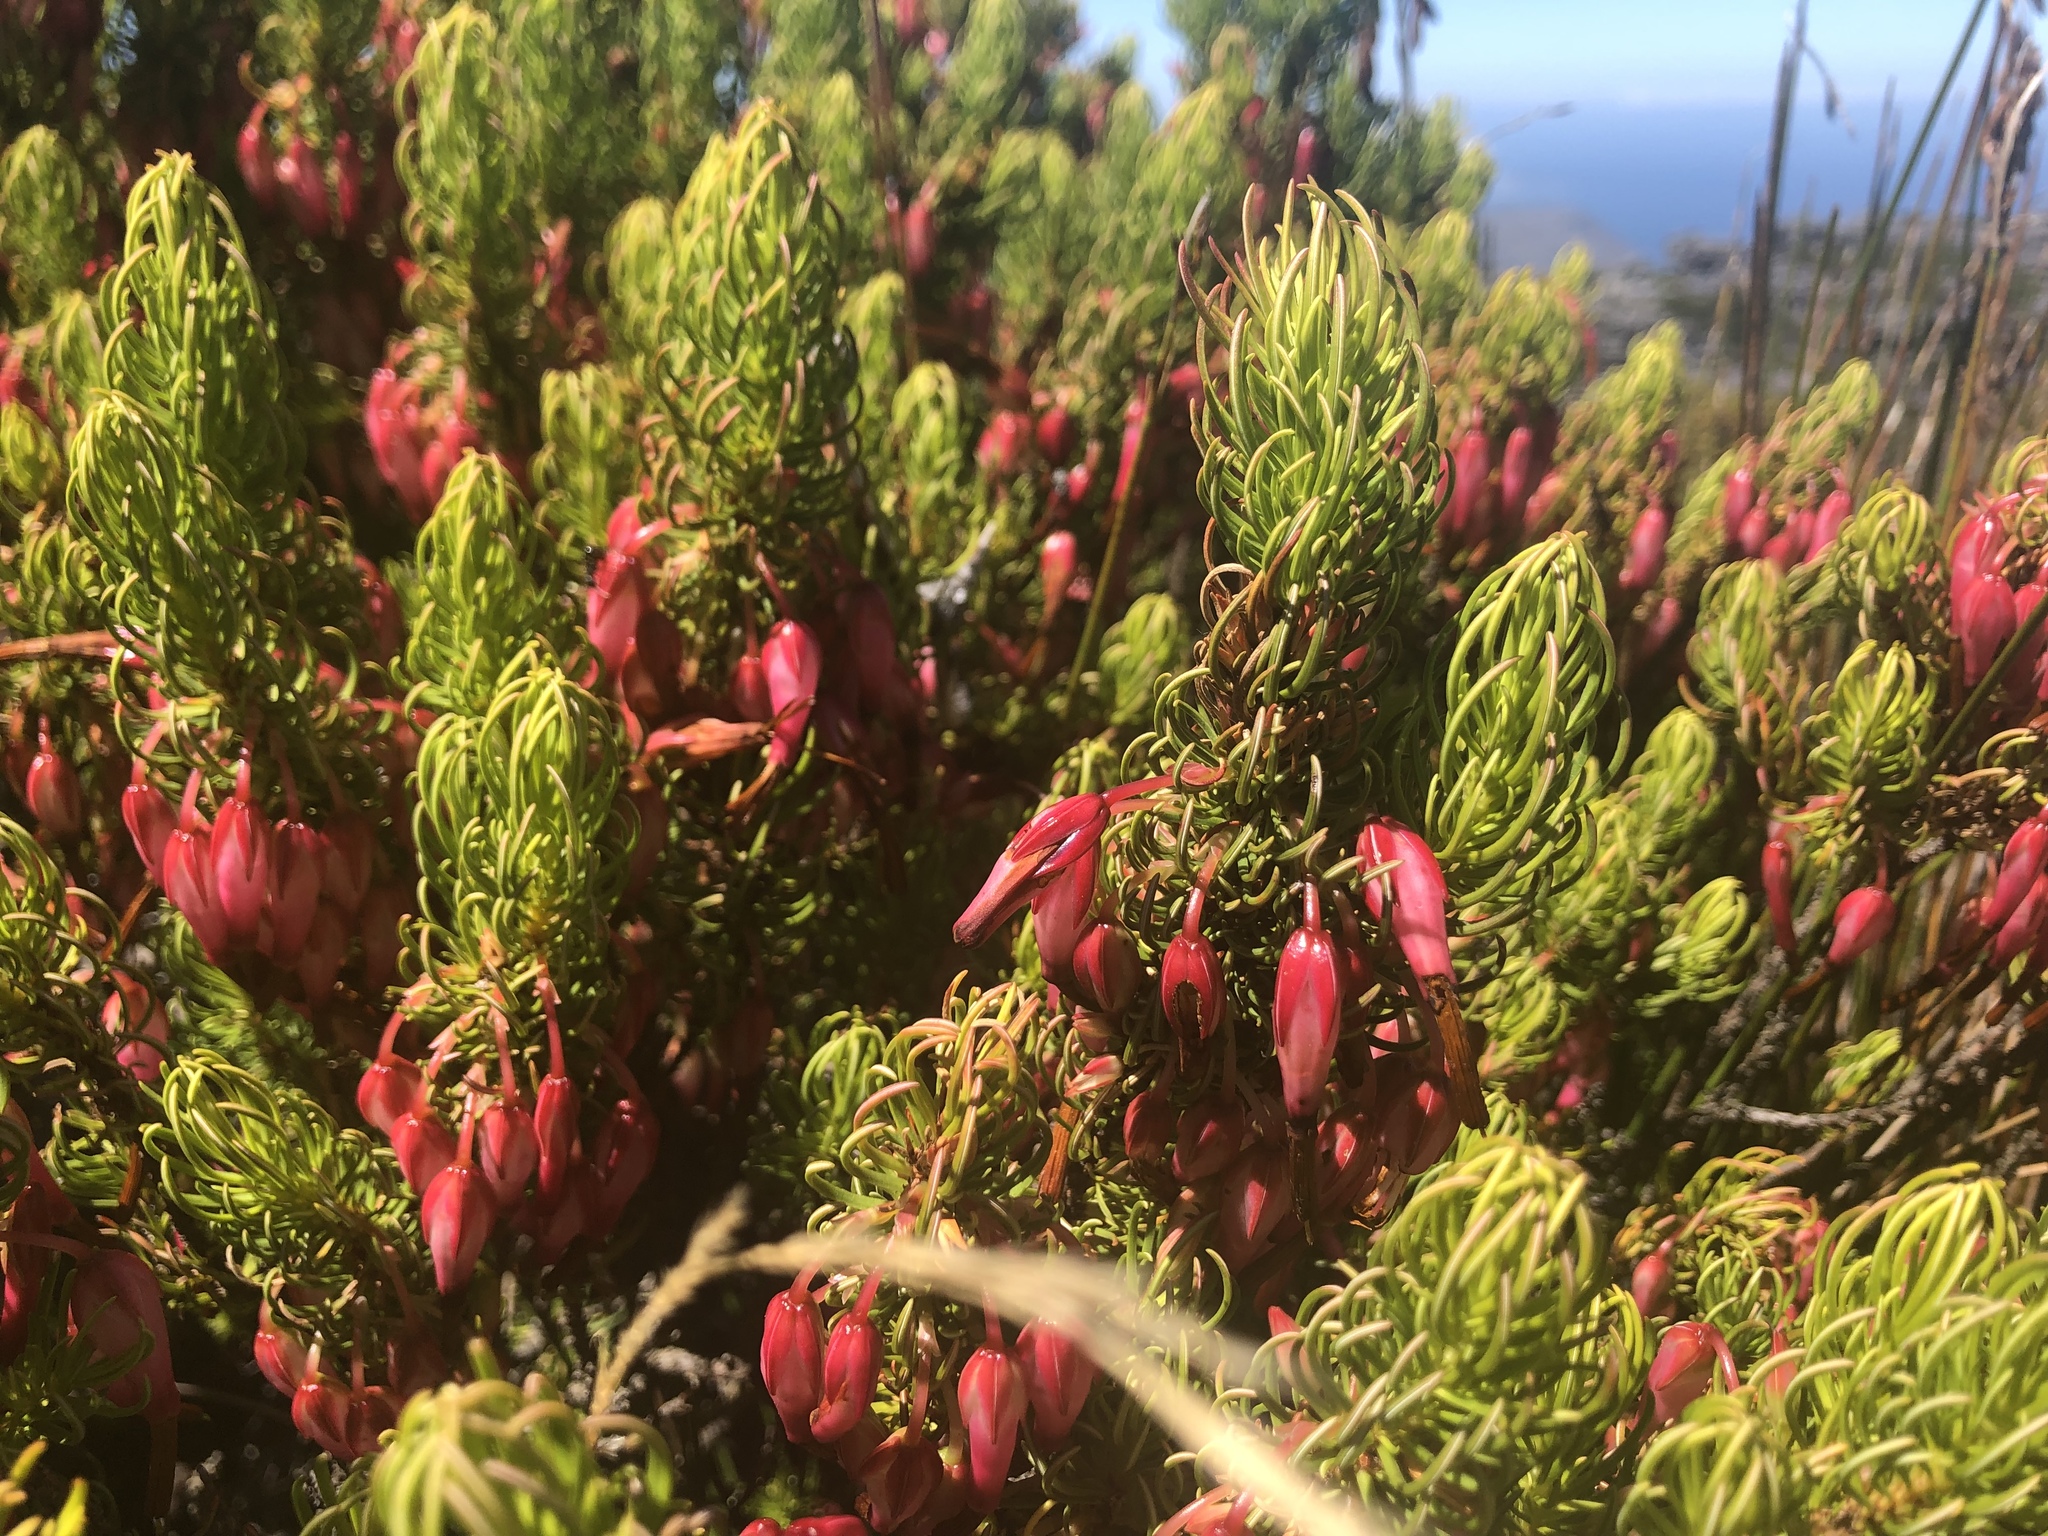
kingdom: Plantae
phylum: Tracheophyta
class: Magnoliopsida
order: Ericales
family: Ericaceae
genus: Erica
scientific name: Erica plukenetii
